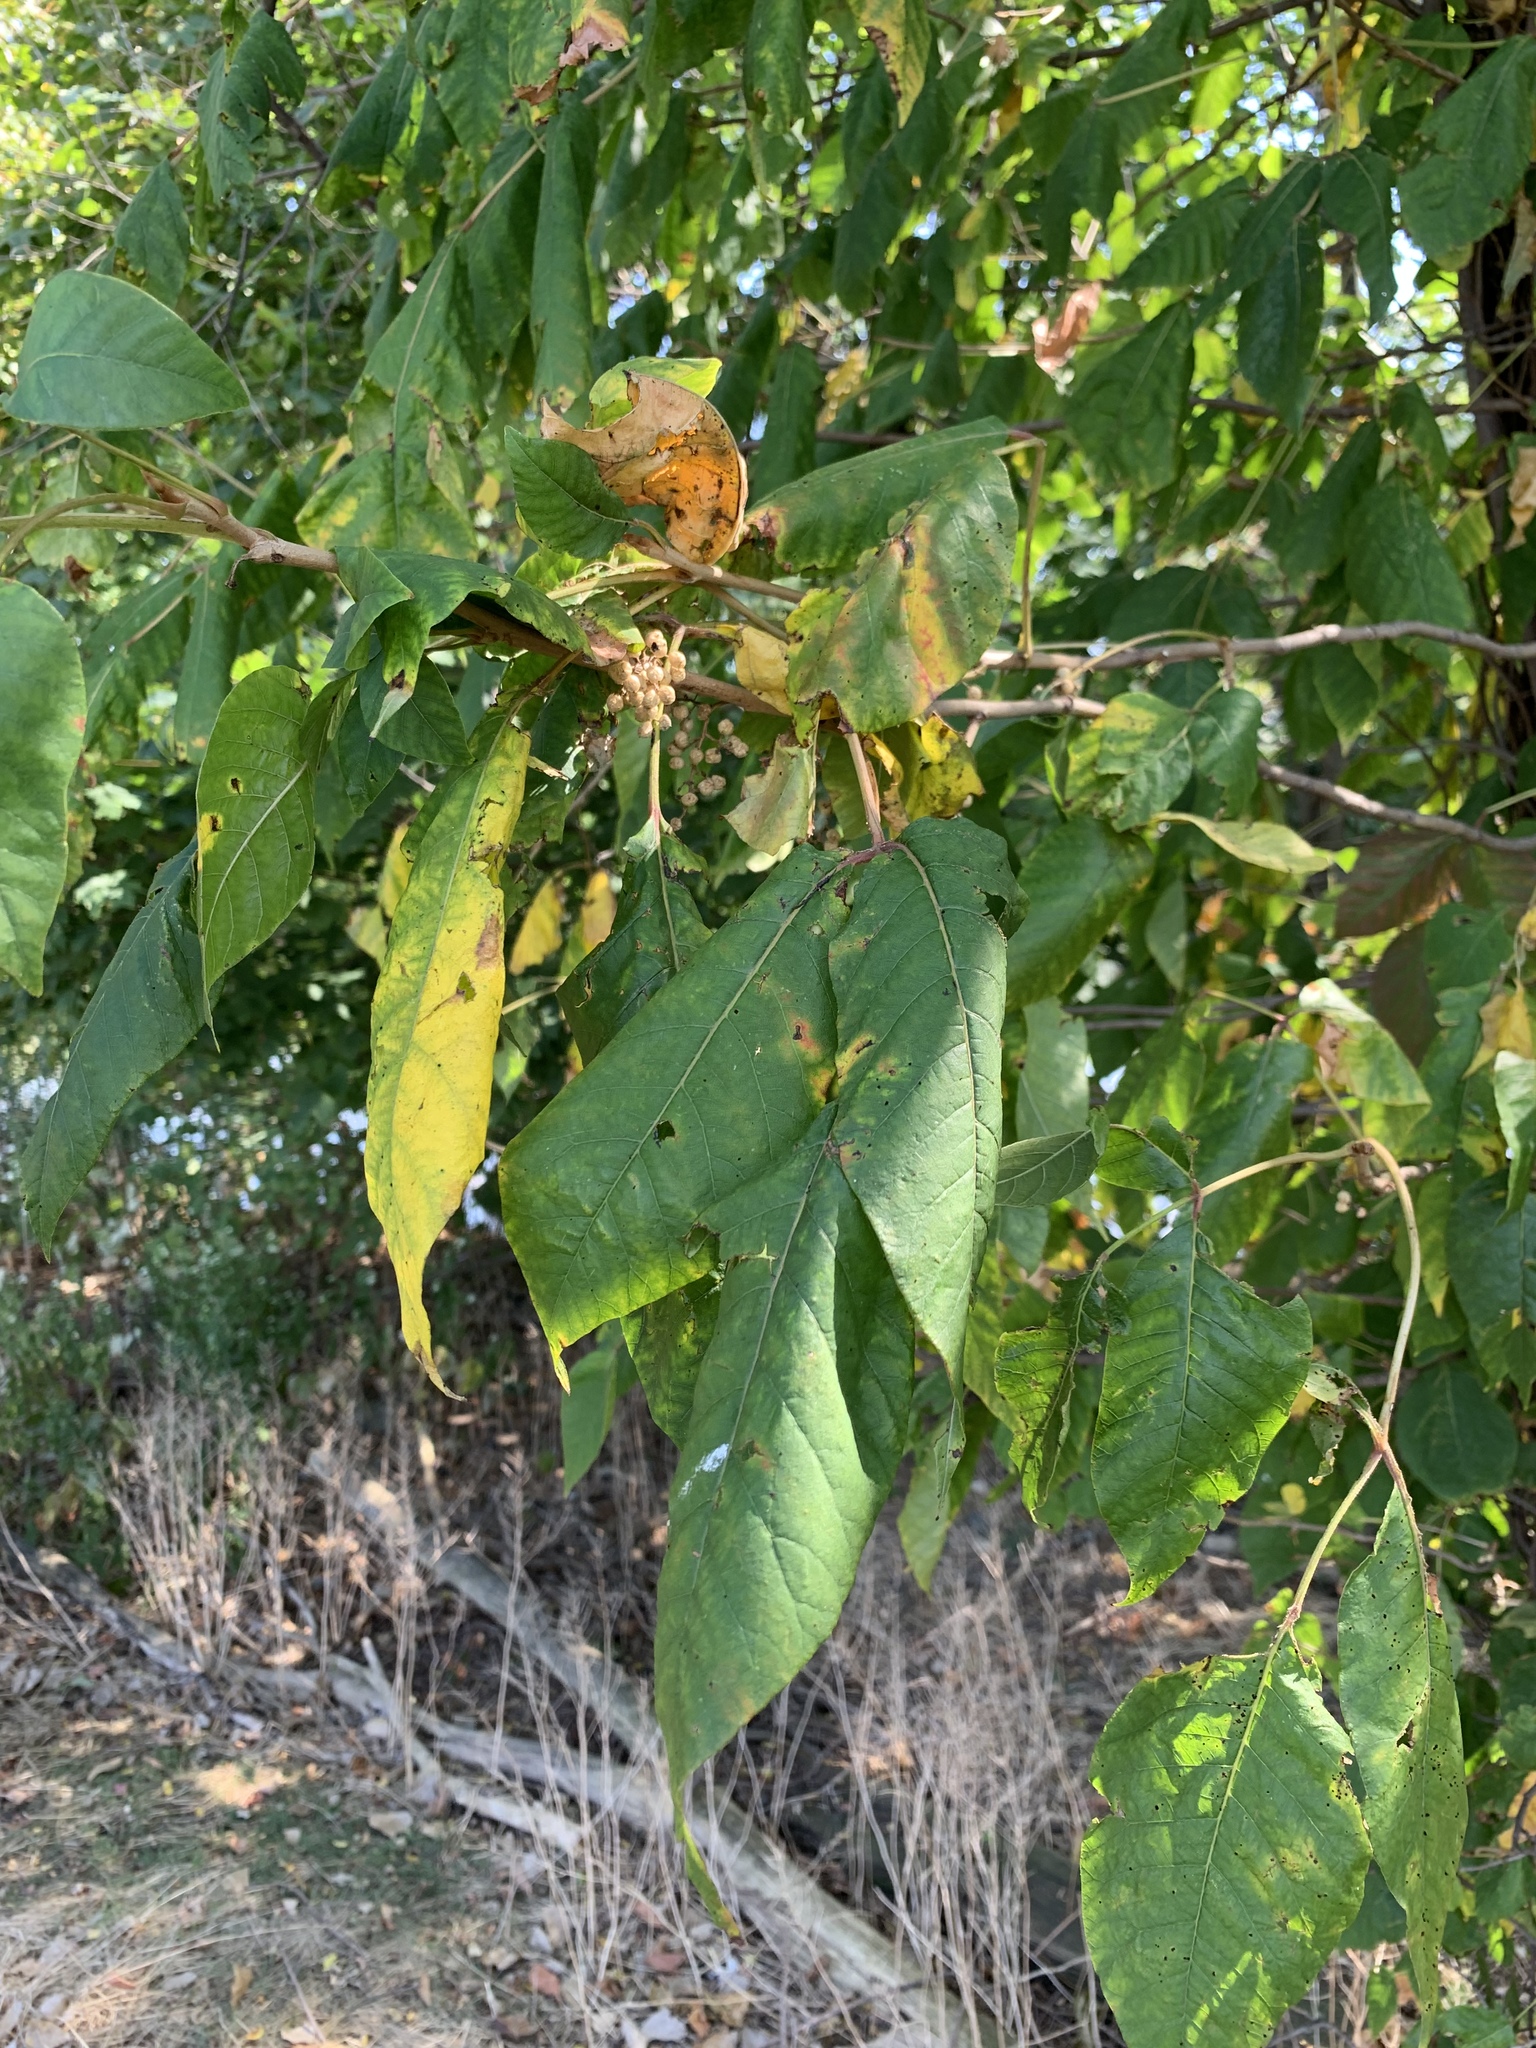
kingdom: Plantae
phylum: Tracheophyta
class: Magnoliopsida
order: Sapindales
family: Anacardiaceae
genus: Toxicodendron
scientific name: Toxicodendron radicans
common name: Poison ivy
